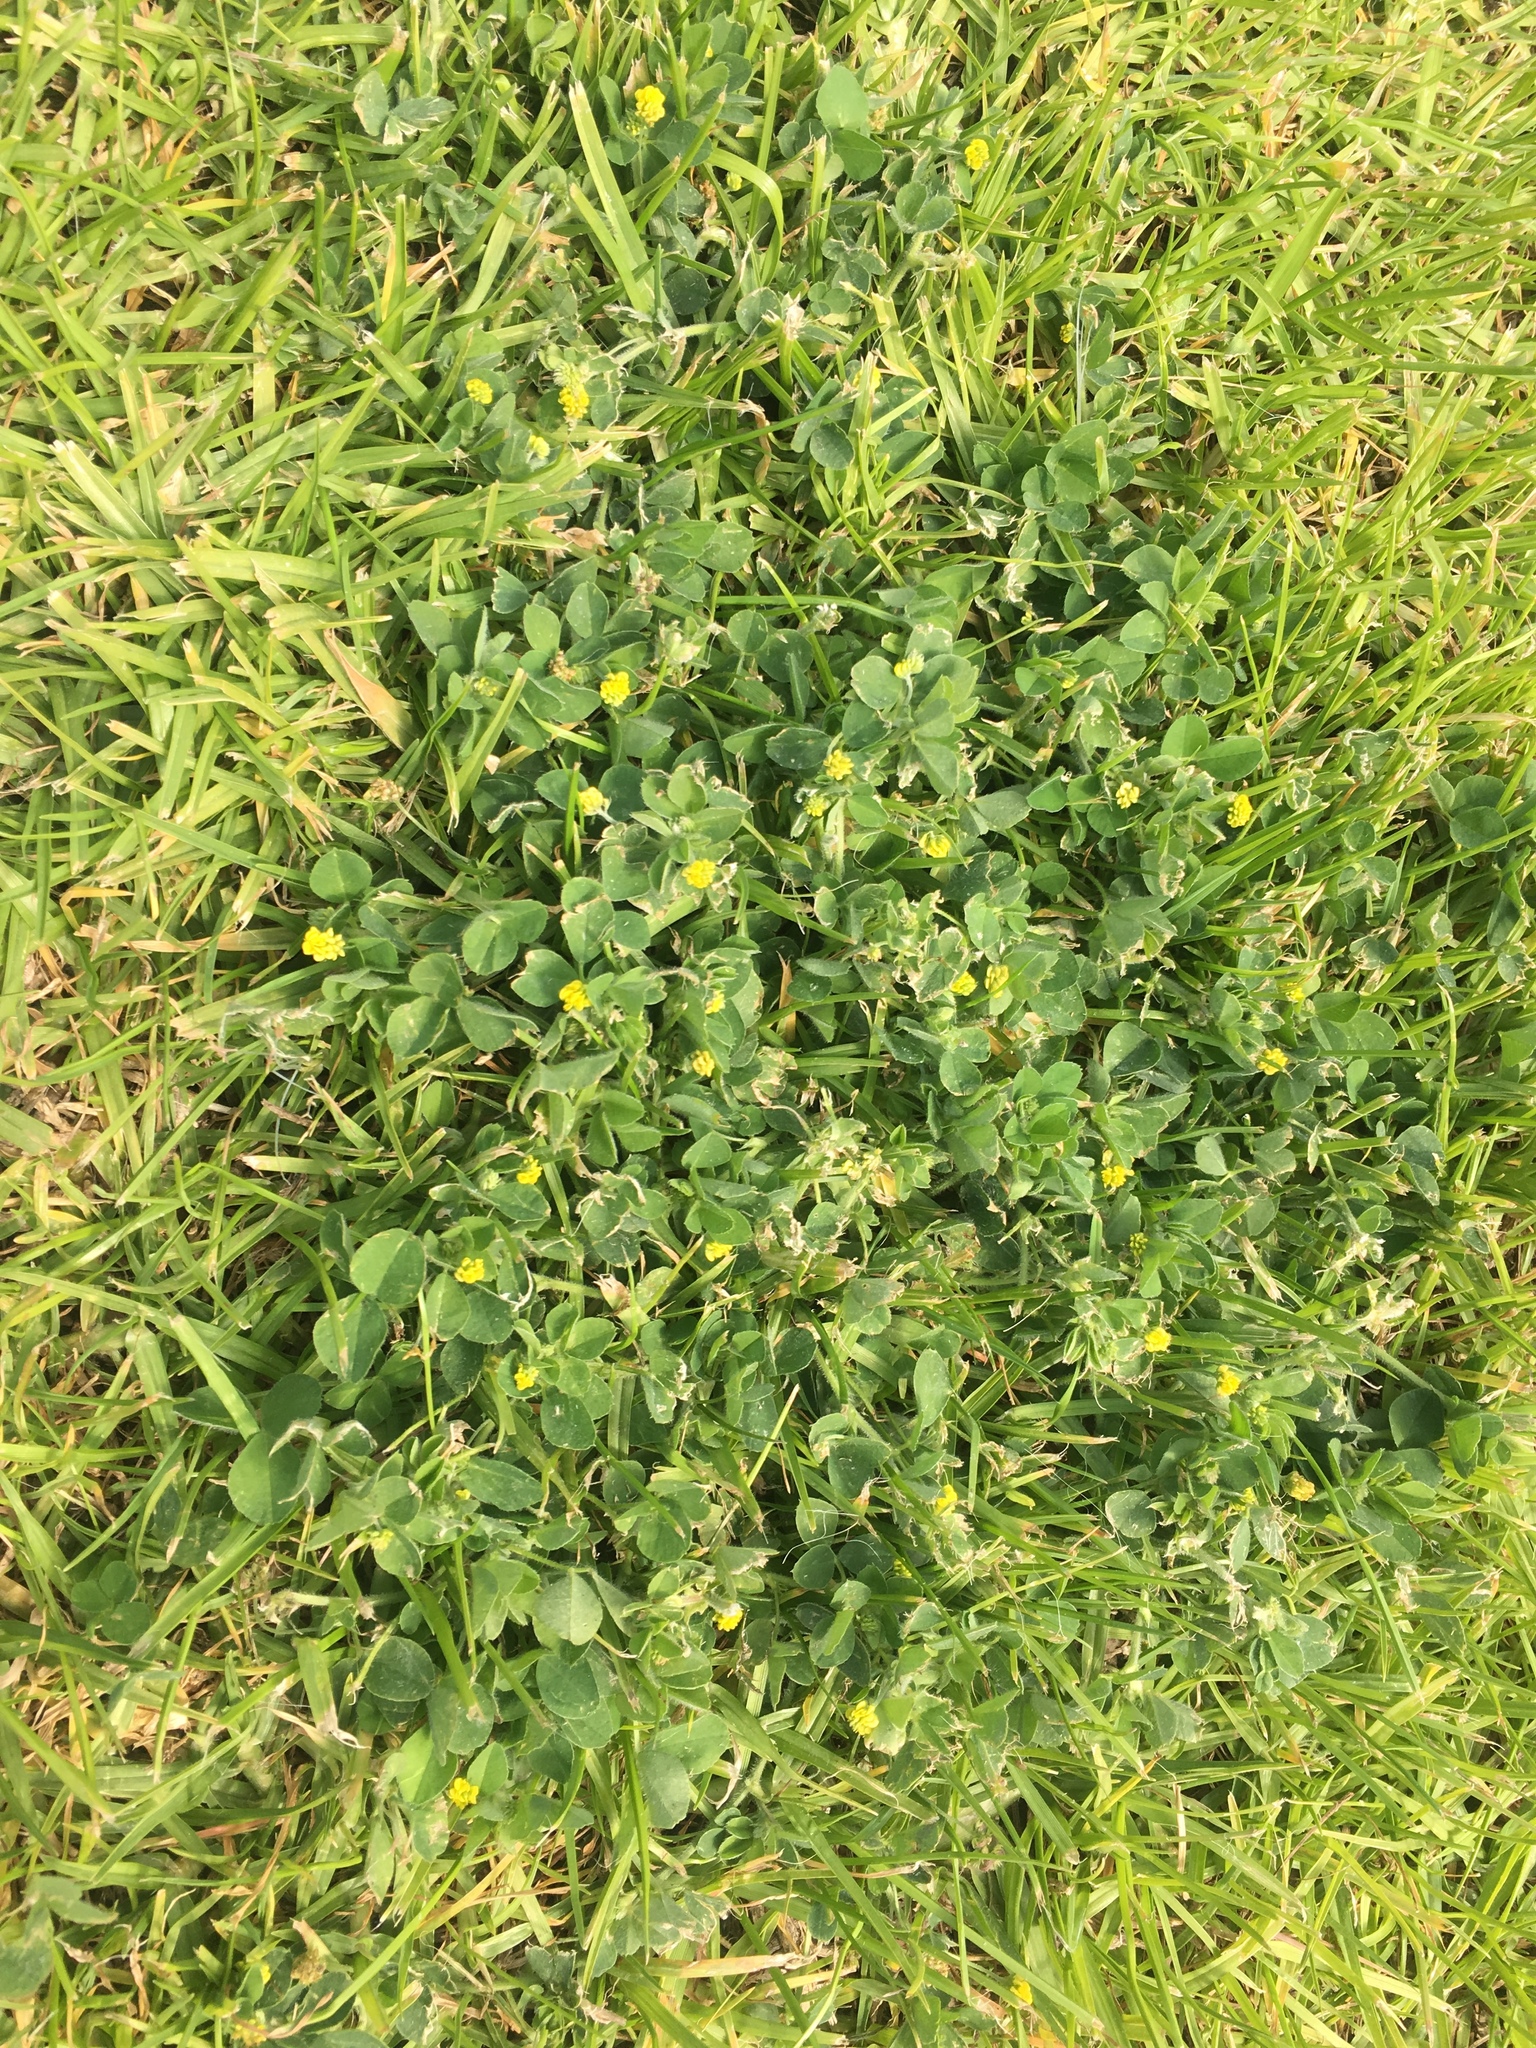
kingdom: Plantae
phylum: Tracheophyta
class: Magnoliopsida
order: Fabales
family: Fabaceae
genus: Medicago
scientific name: Medicago lupulina
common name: Black medick
